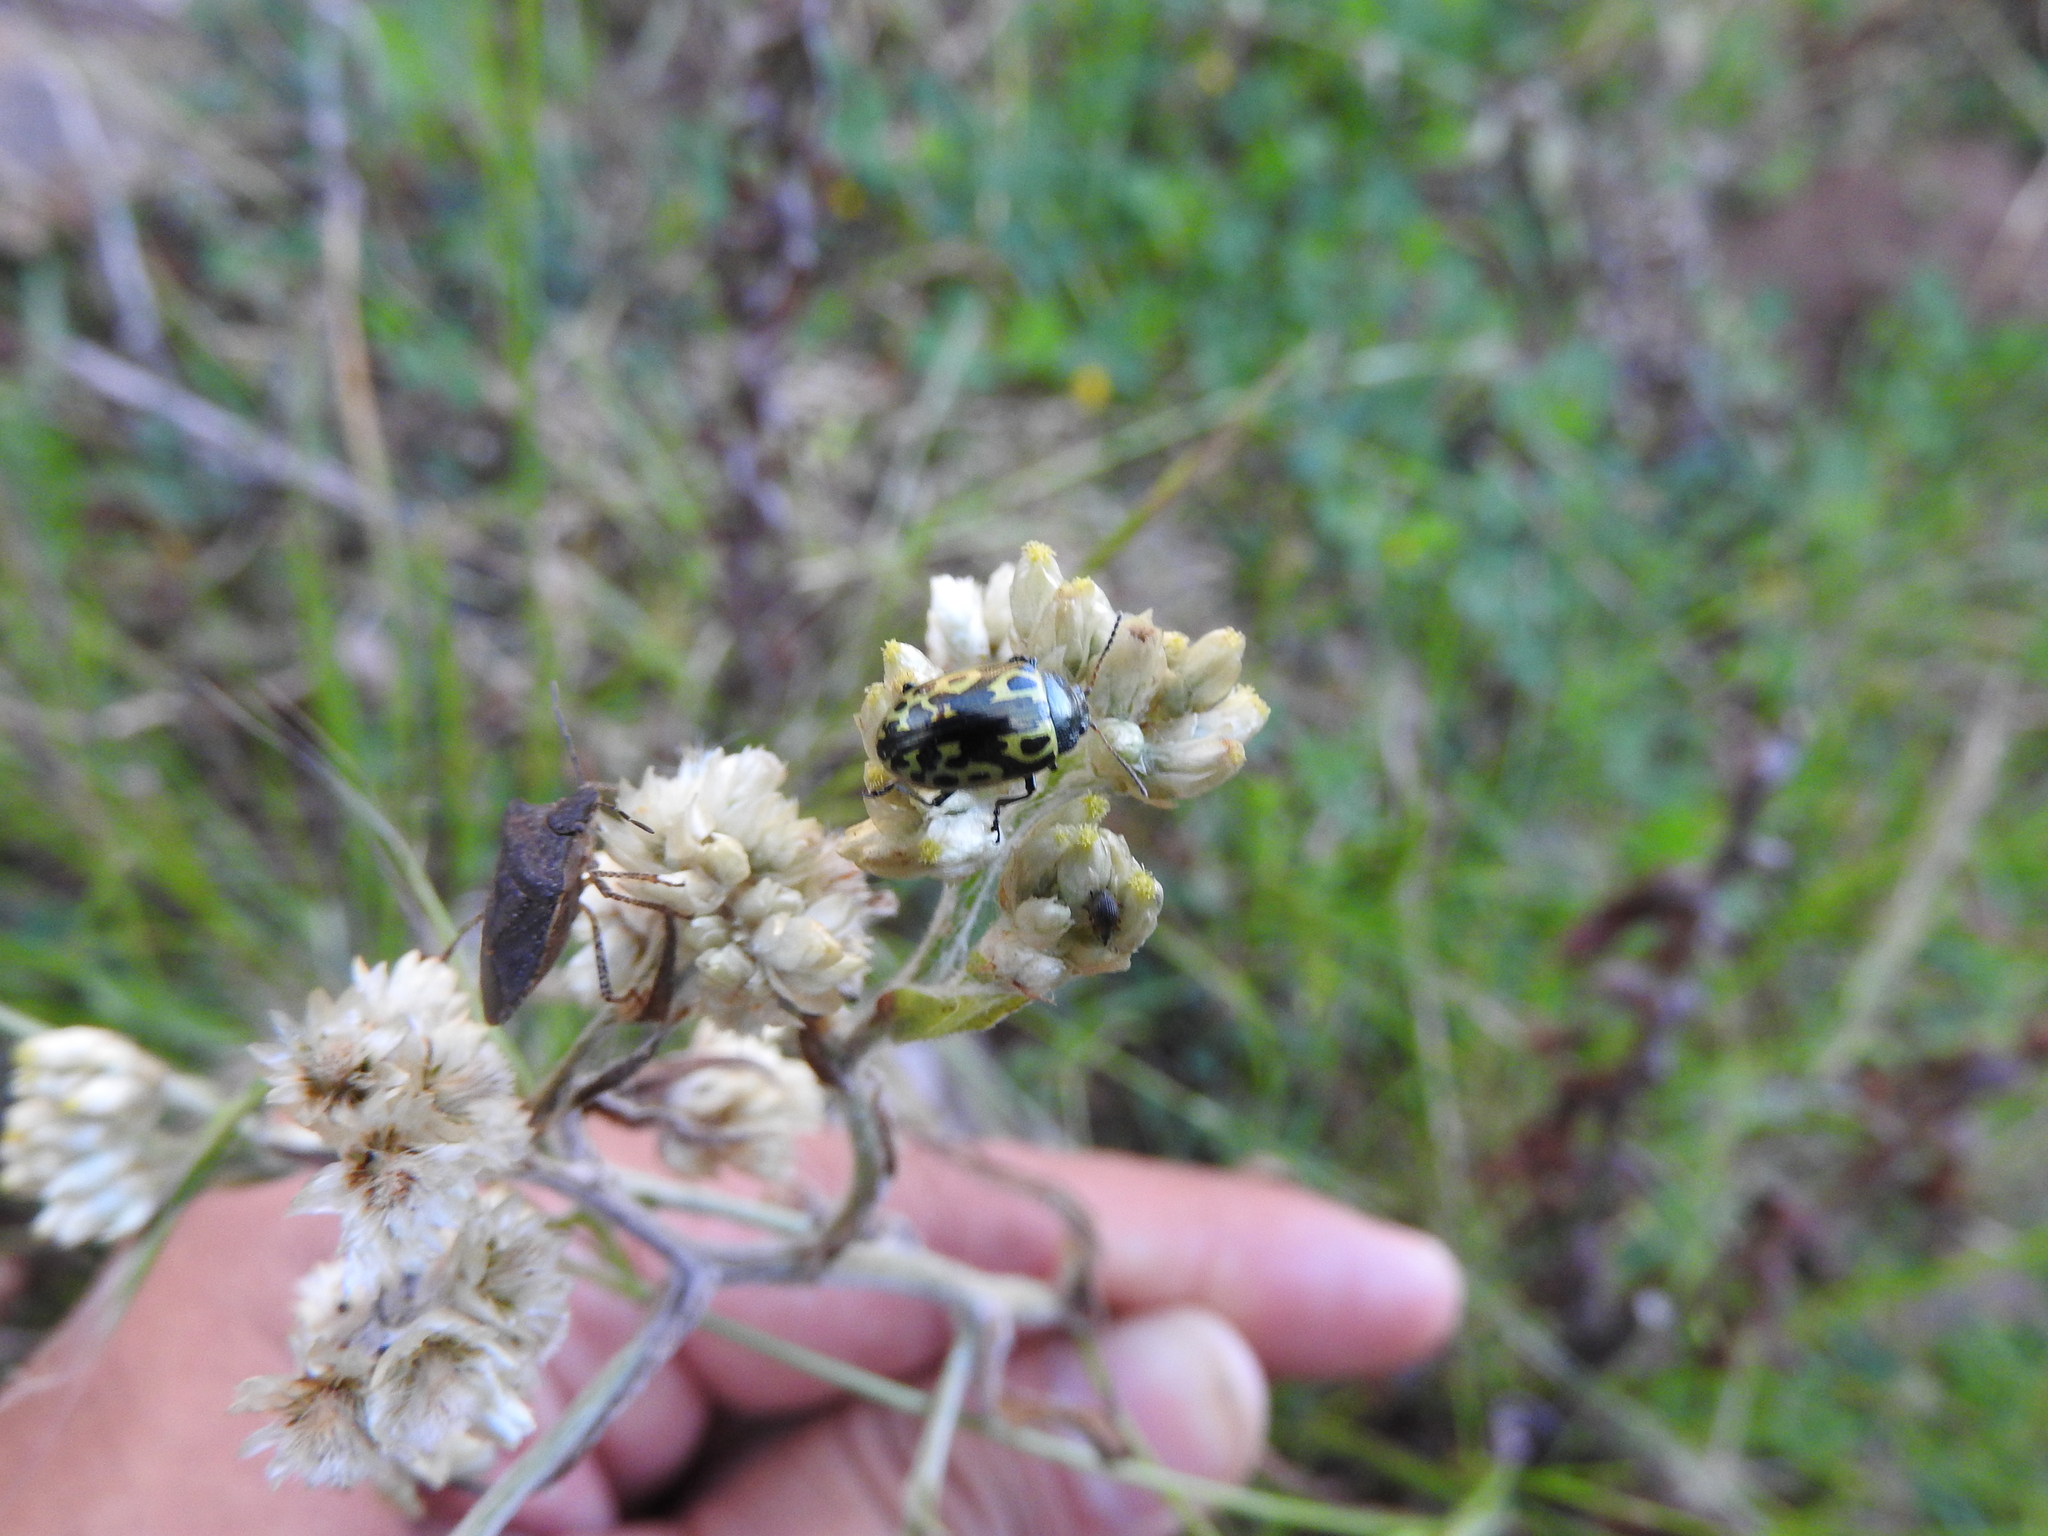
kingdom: Animalia
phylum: Arthropoda
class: Insecta
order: Coleoptera
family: Chrysomelidae
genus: Calligrapha
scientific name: Calligrapha
